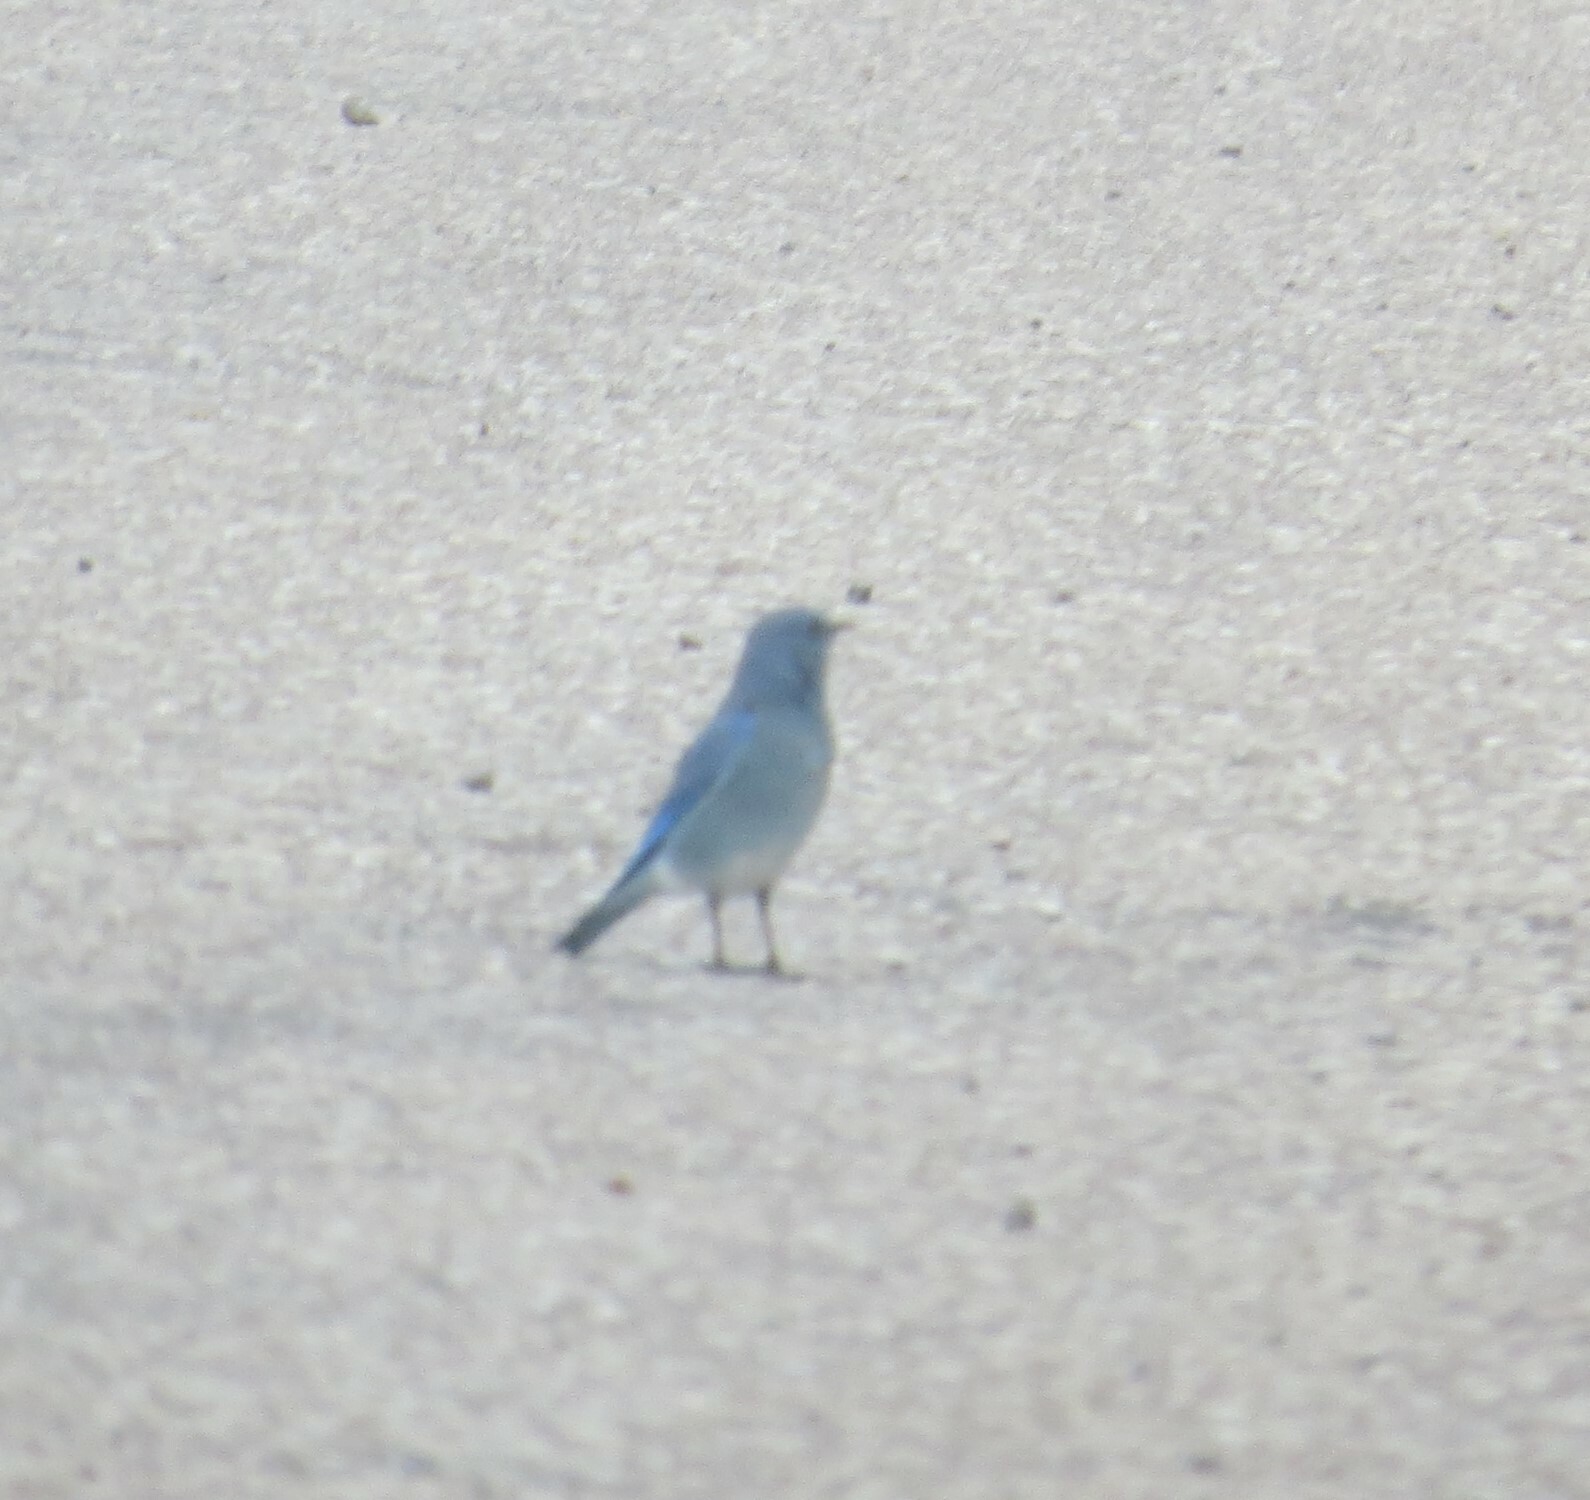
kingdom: Animalia
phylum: Chordata
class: Aves
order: Passeriformes
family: Turdidae
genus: Sialia
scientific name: Sialia currucoides
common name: Mountain bluebird
